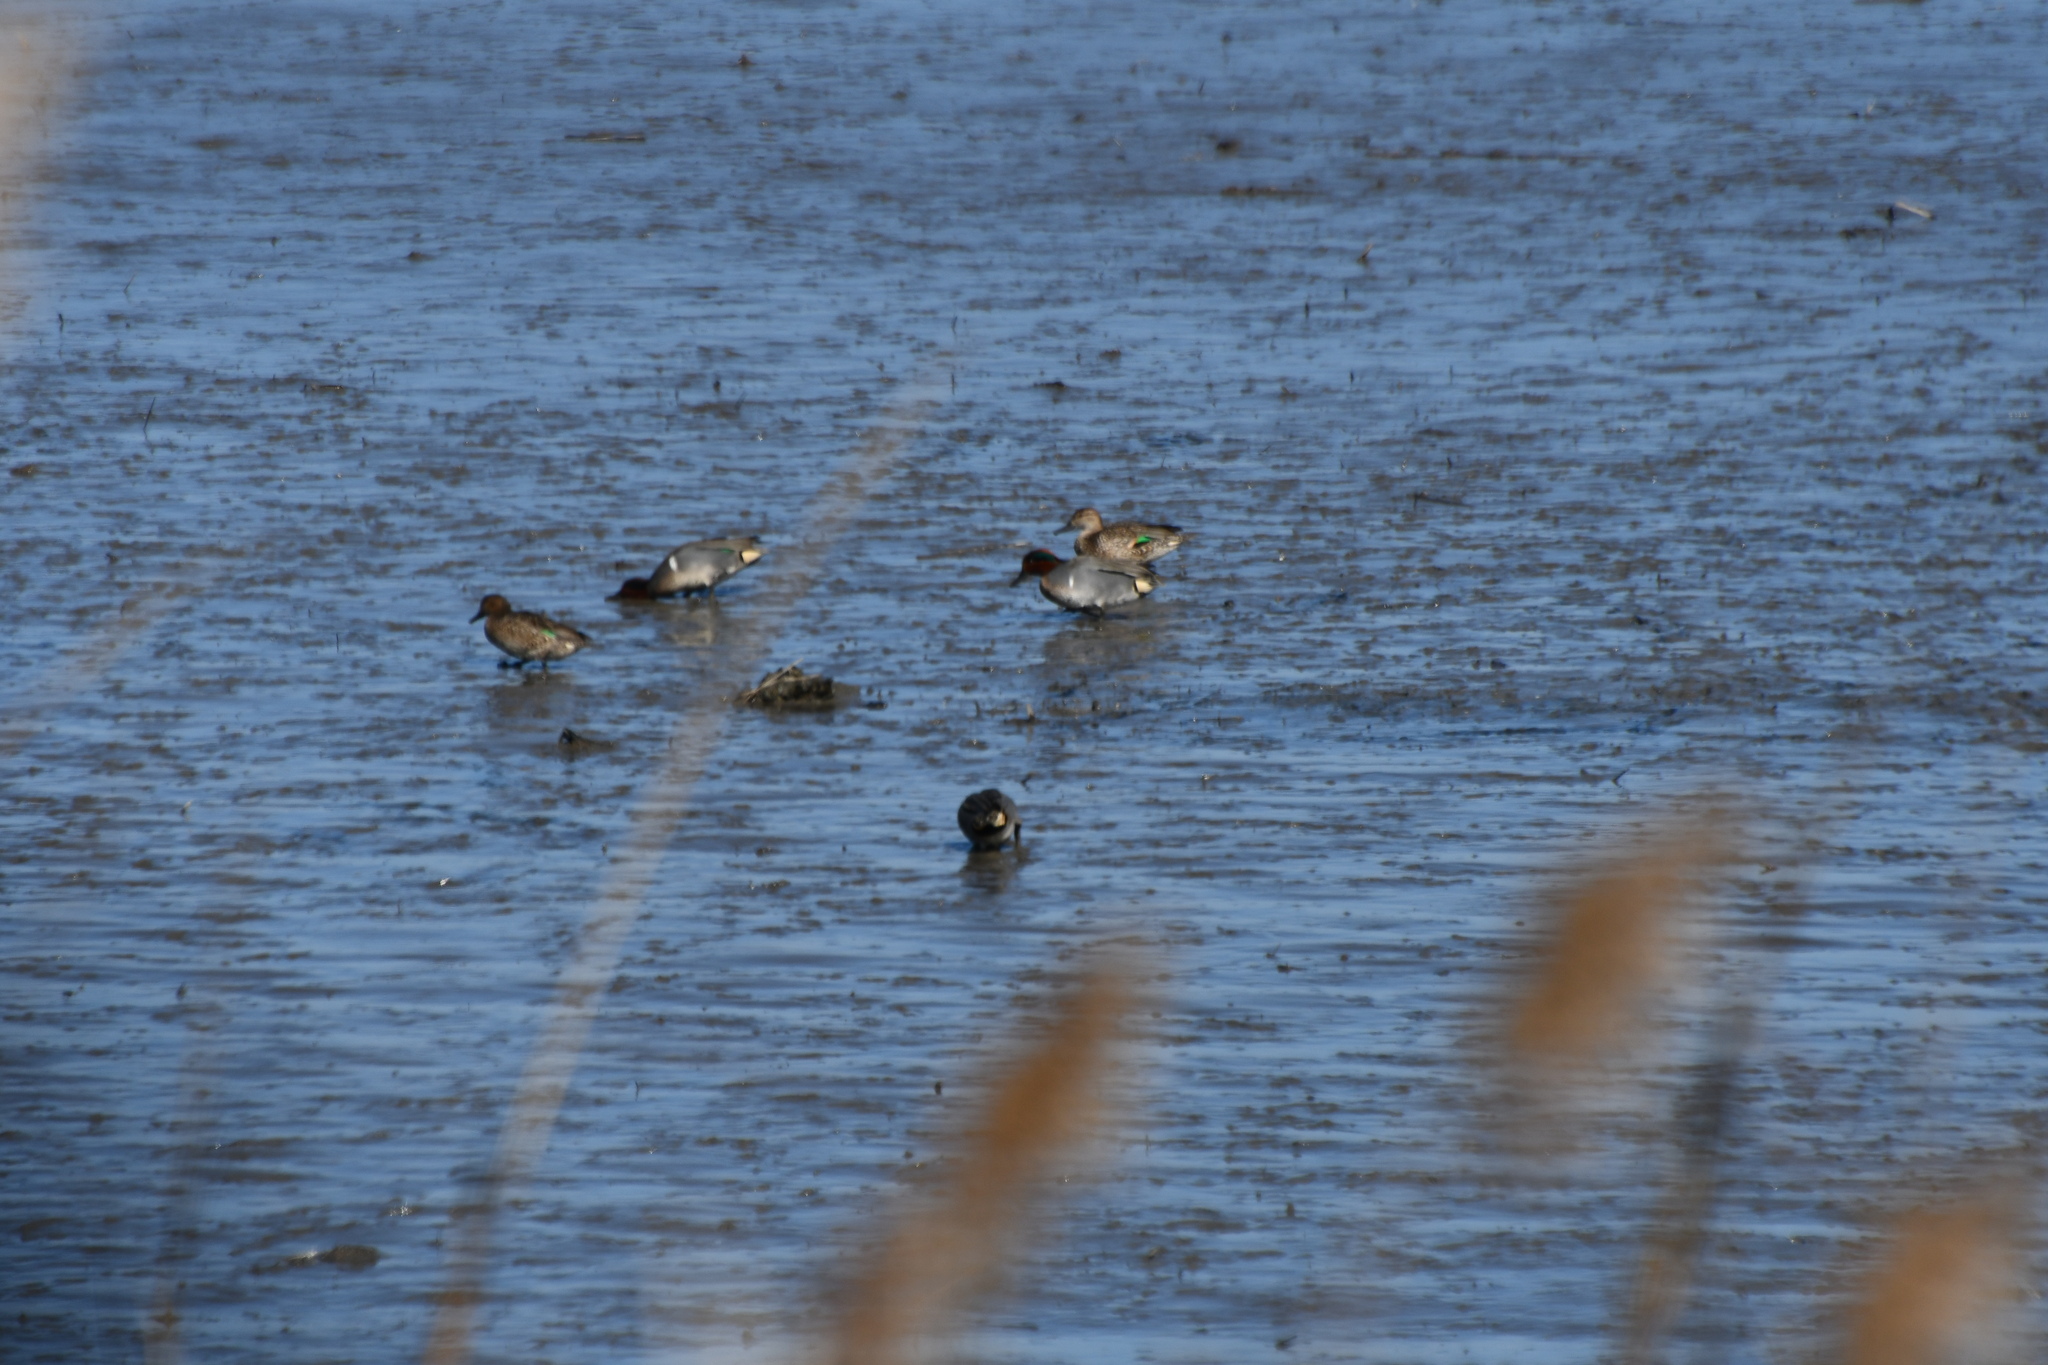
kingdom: Animalia
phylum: Chordata
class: Aves
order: Anseriformes
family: Anatidae
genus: Anas
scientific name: Anas crecca
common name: Eurasian teal
